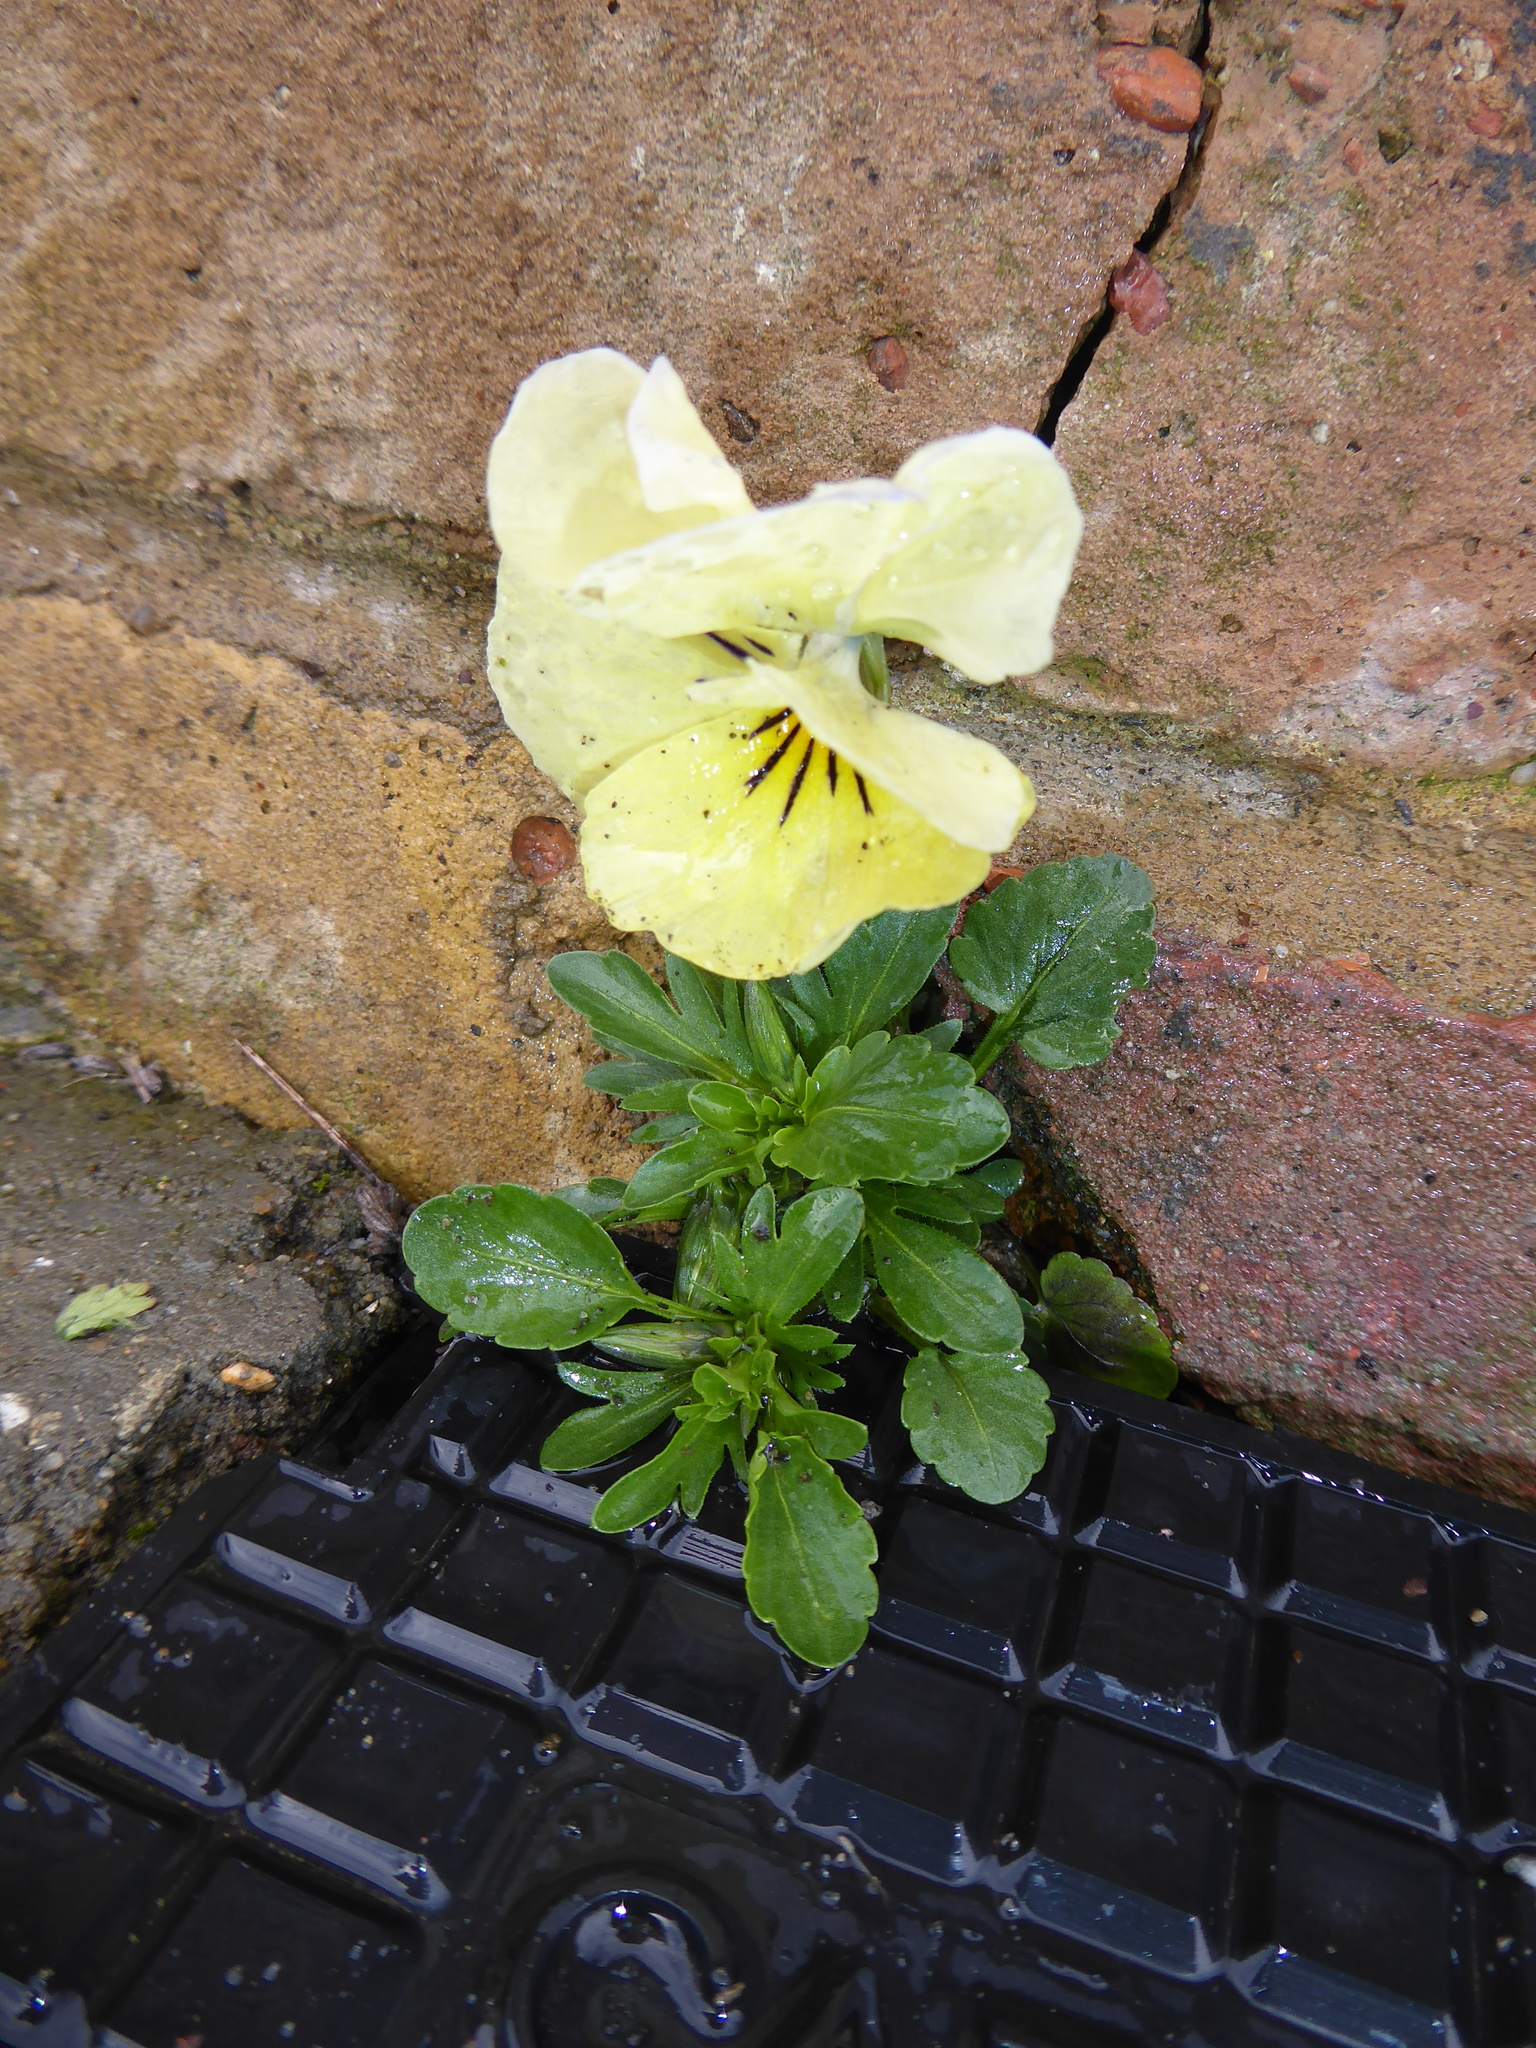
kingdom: Plantae
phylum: Tracheophyta
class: Magnoliopsida
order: Malpighiales
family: Violaceae
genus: Viola
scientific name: Viola wittrockiana
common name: Garden pansy
